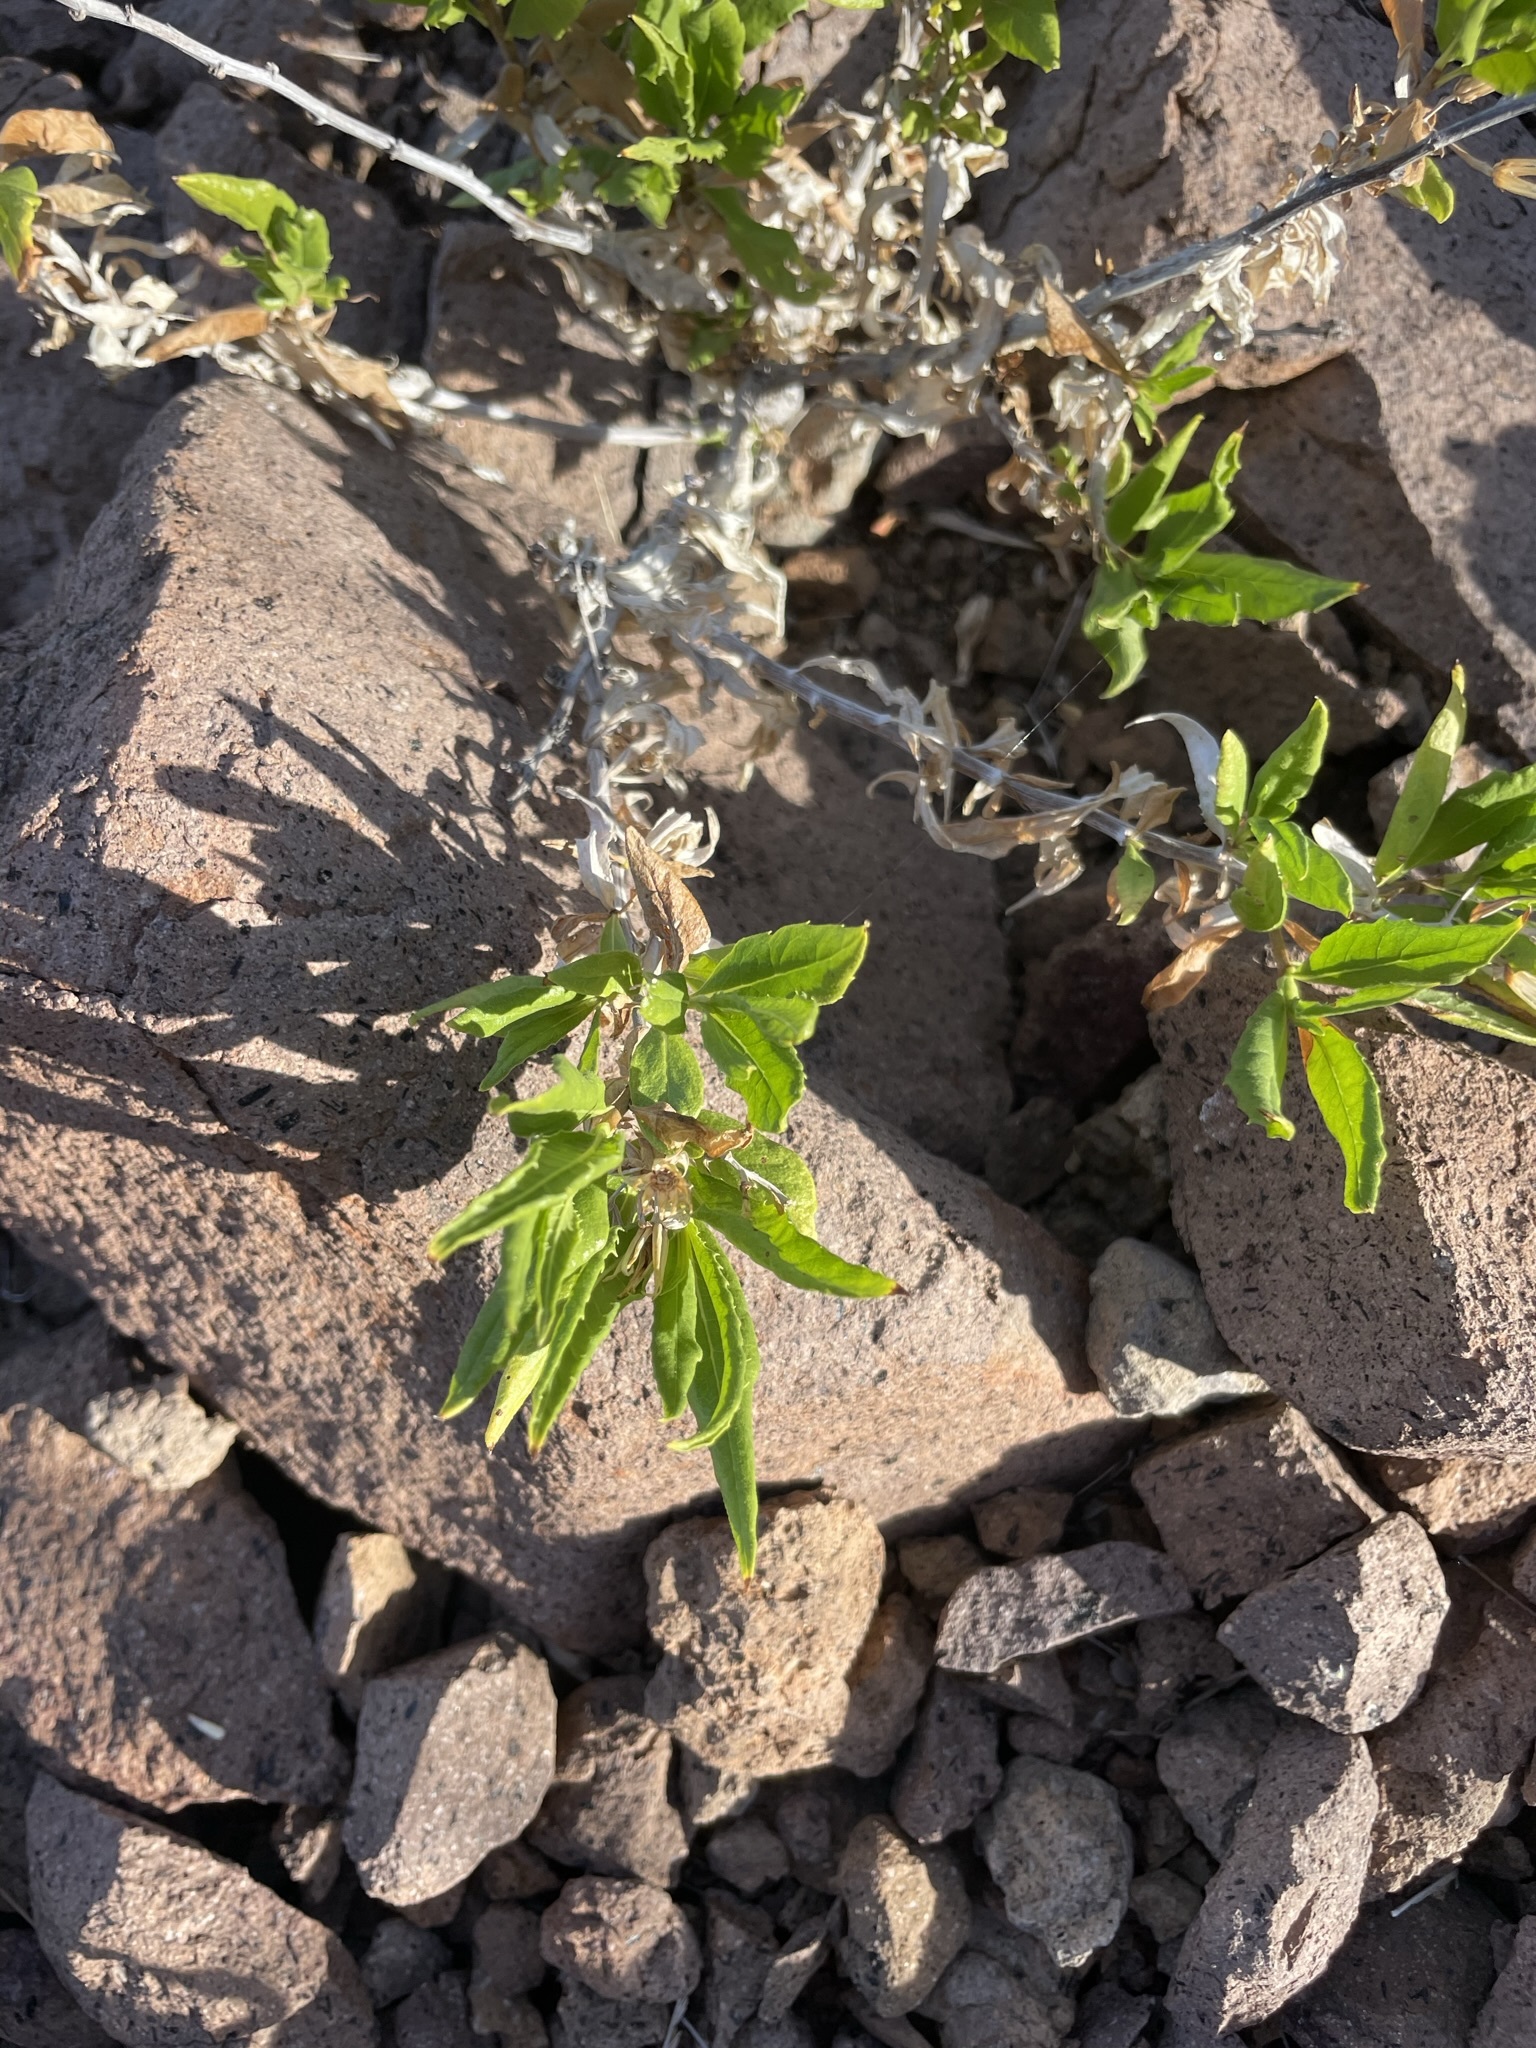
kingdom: Plantae
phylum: Tracheophyta
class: Magnoliopsida
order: Asterales
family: Asteraceae
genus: Trixis
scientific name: Trixis californica
